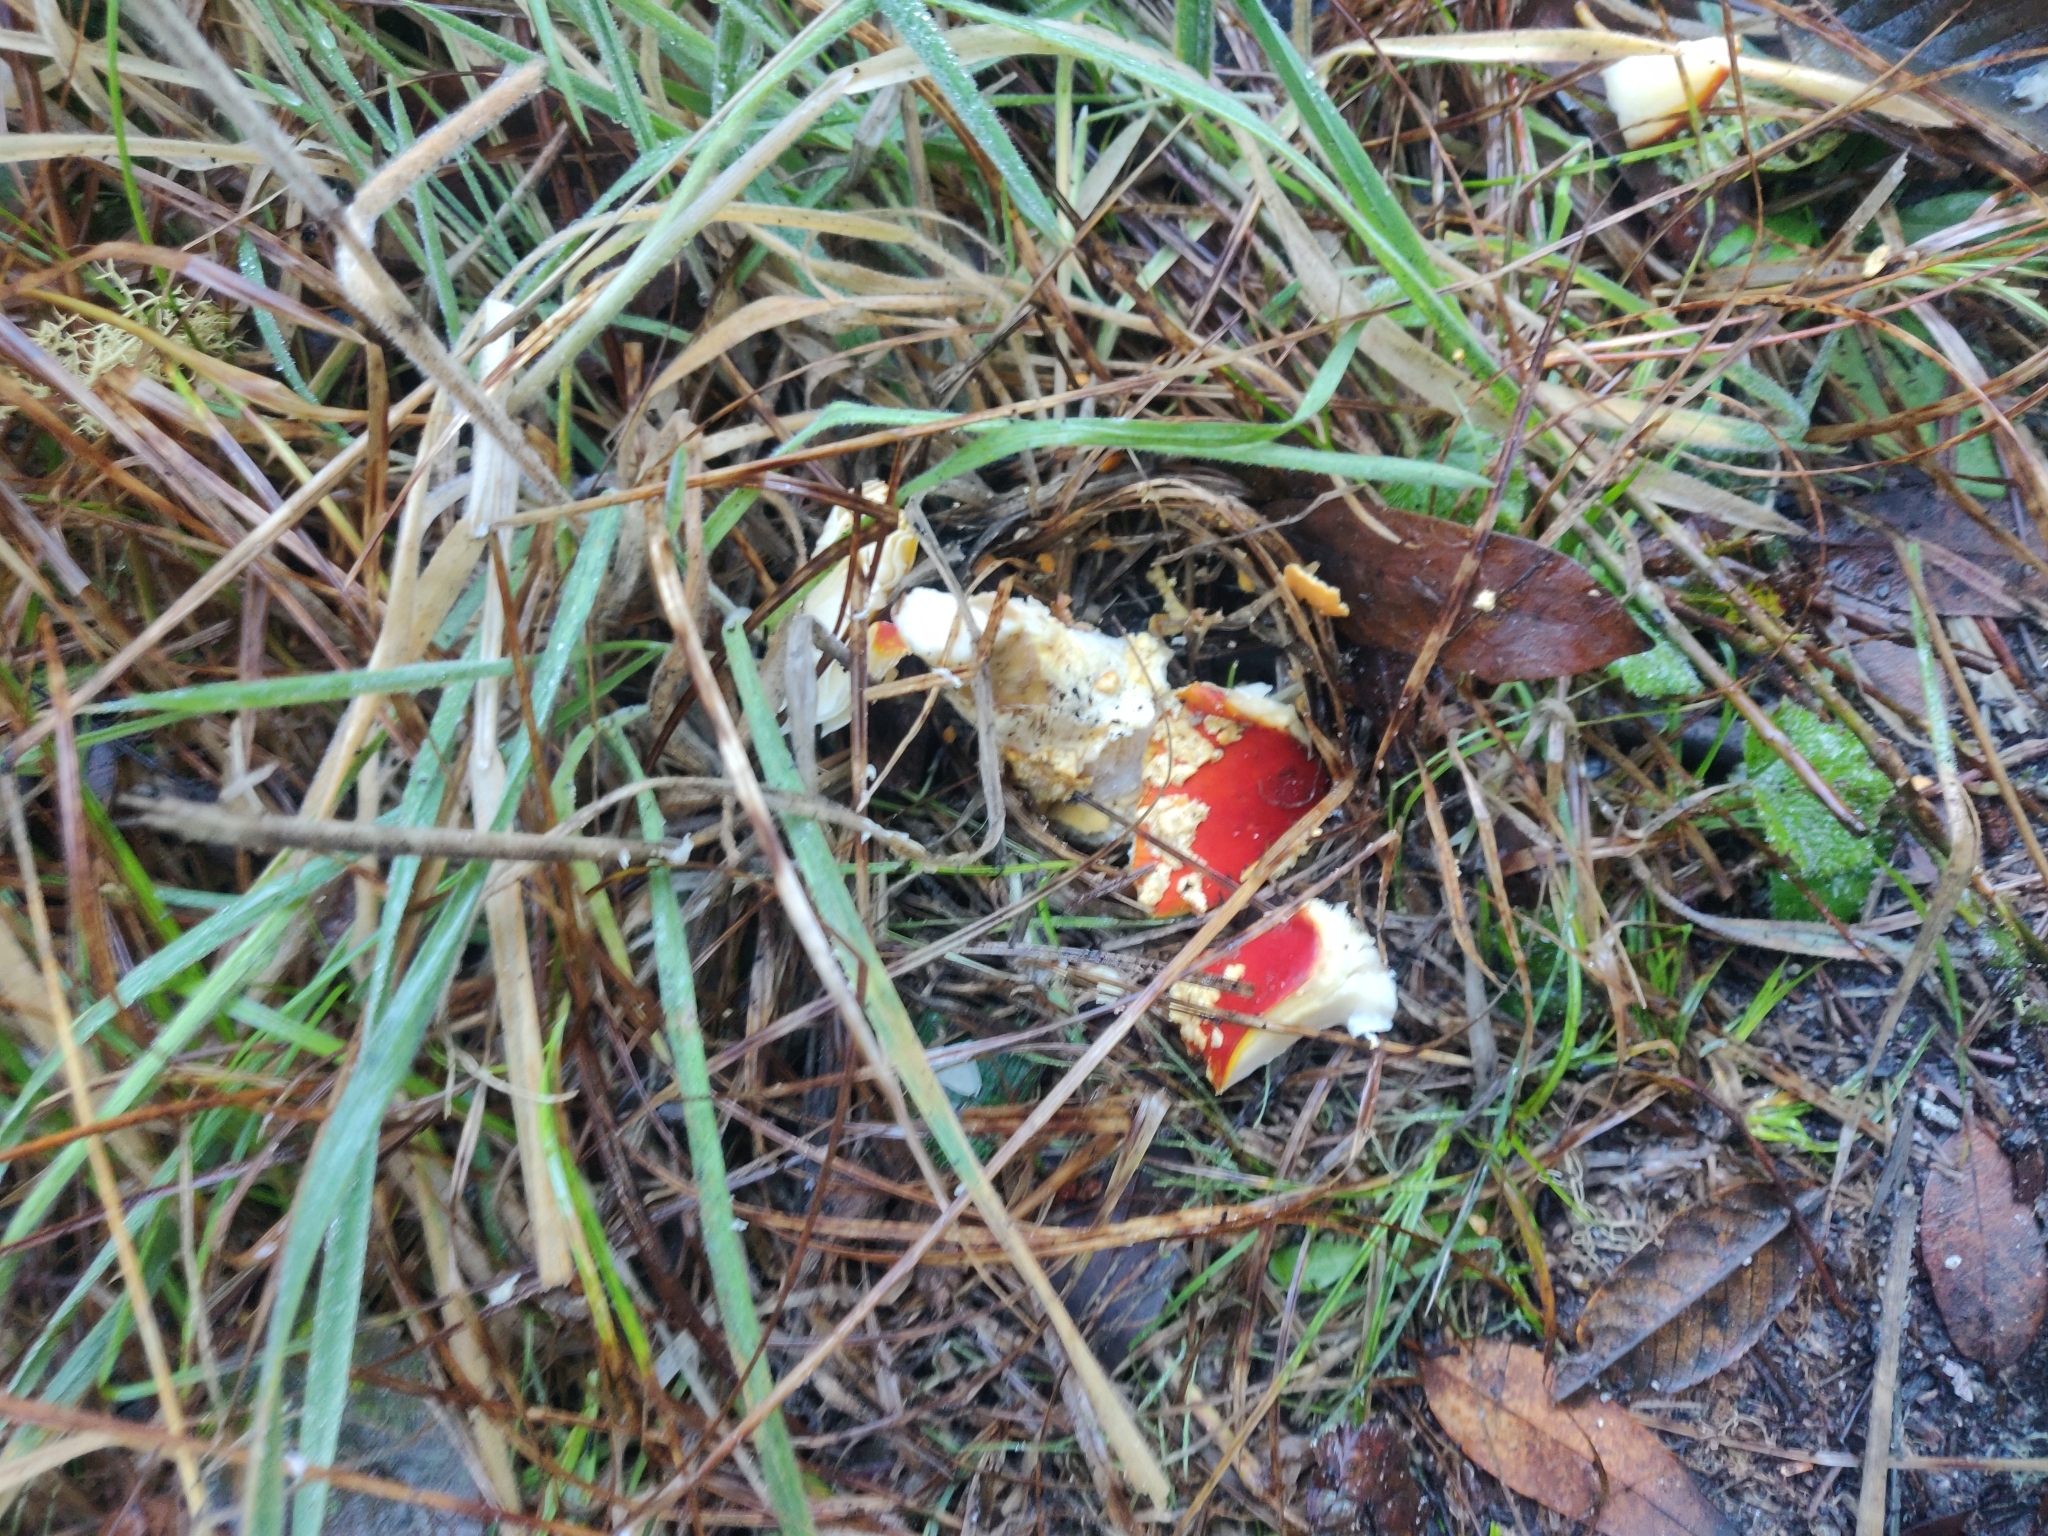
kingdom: Fungi
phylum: Basidiomycota
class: Agaricomycetes
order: Agaricales
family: Amanitaceae
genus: Amanita
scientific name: Amanita muscaria
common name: Fly agaric
